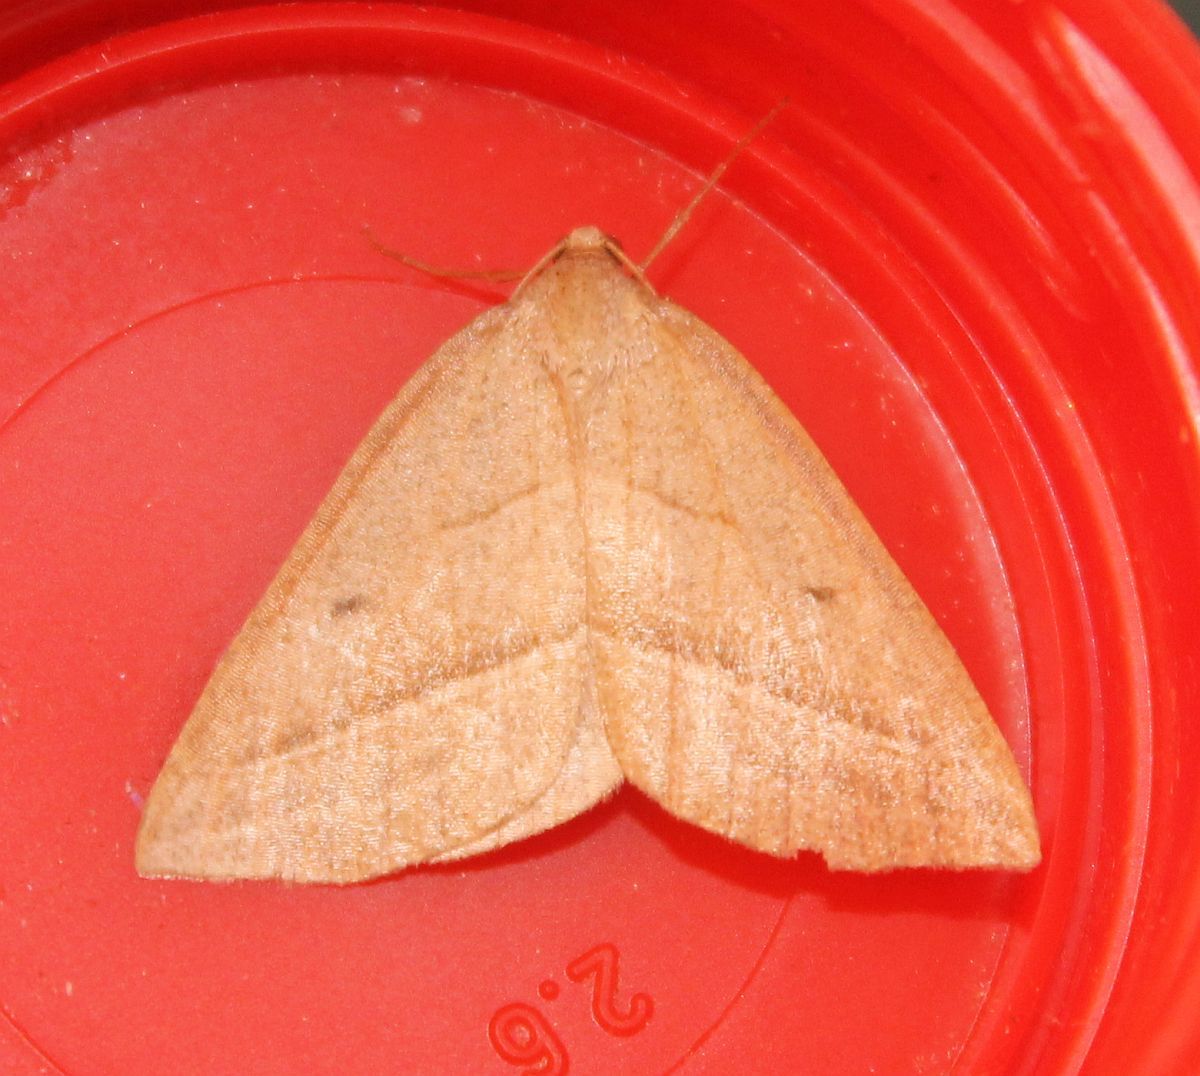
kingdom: Animalia
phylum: Arthropoda
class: Insecta
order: Lepidoptera
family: Pterophoridae
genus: Pterophorus
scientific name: Pterophorus Petrophora chlorosata
